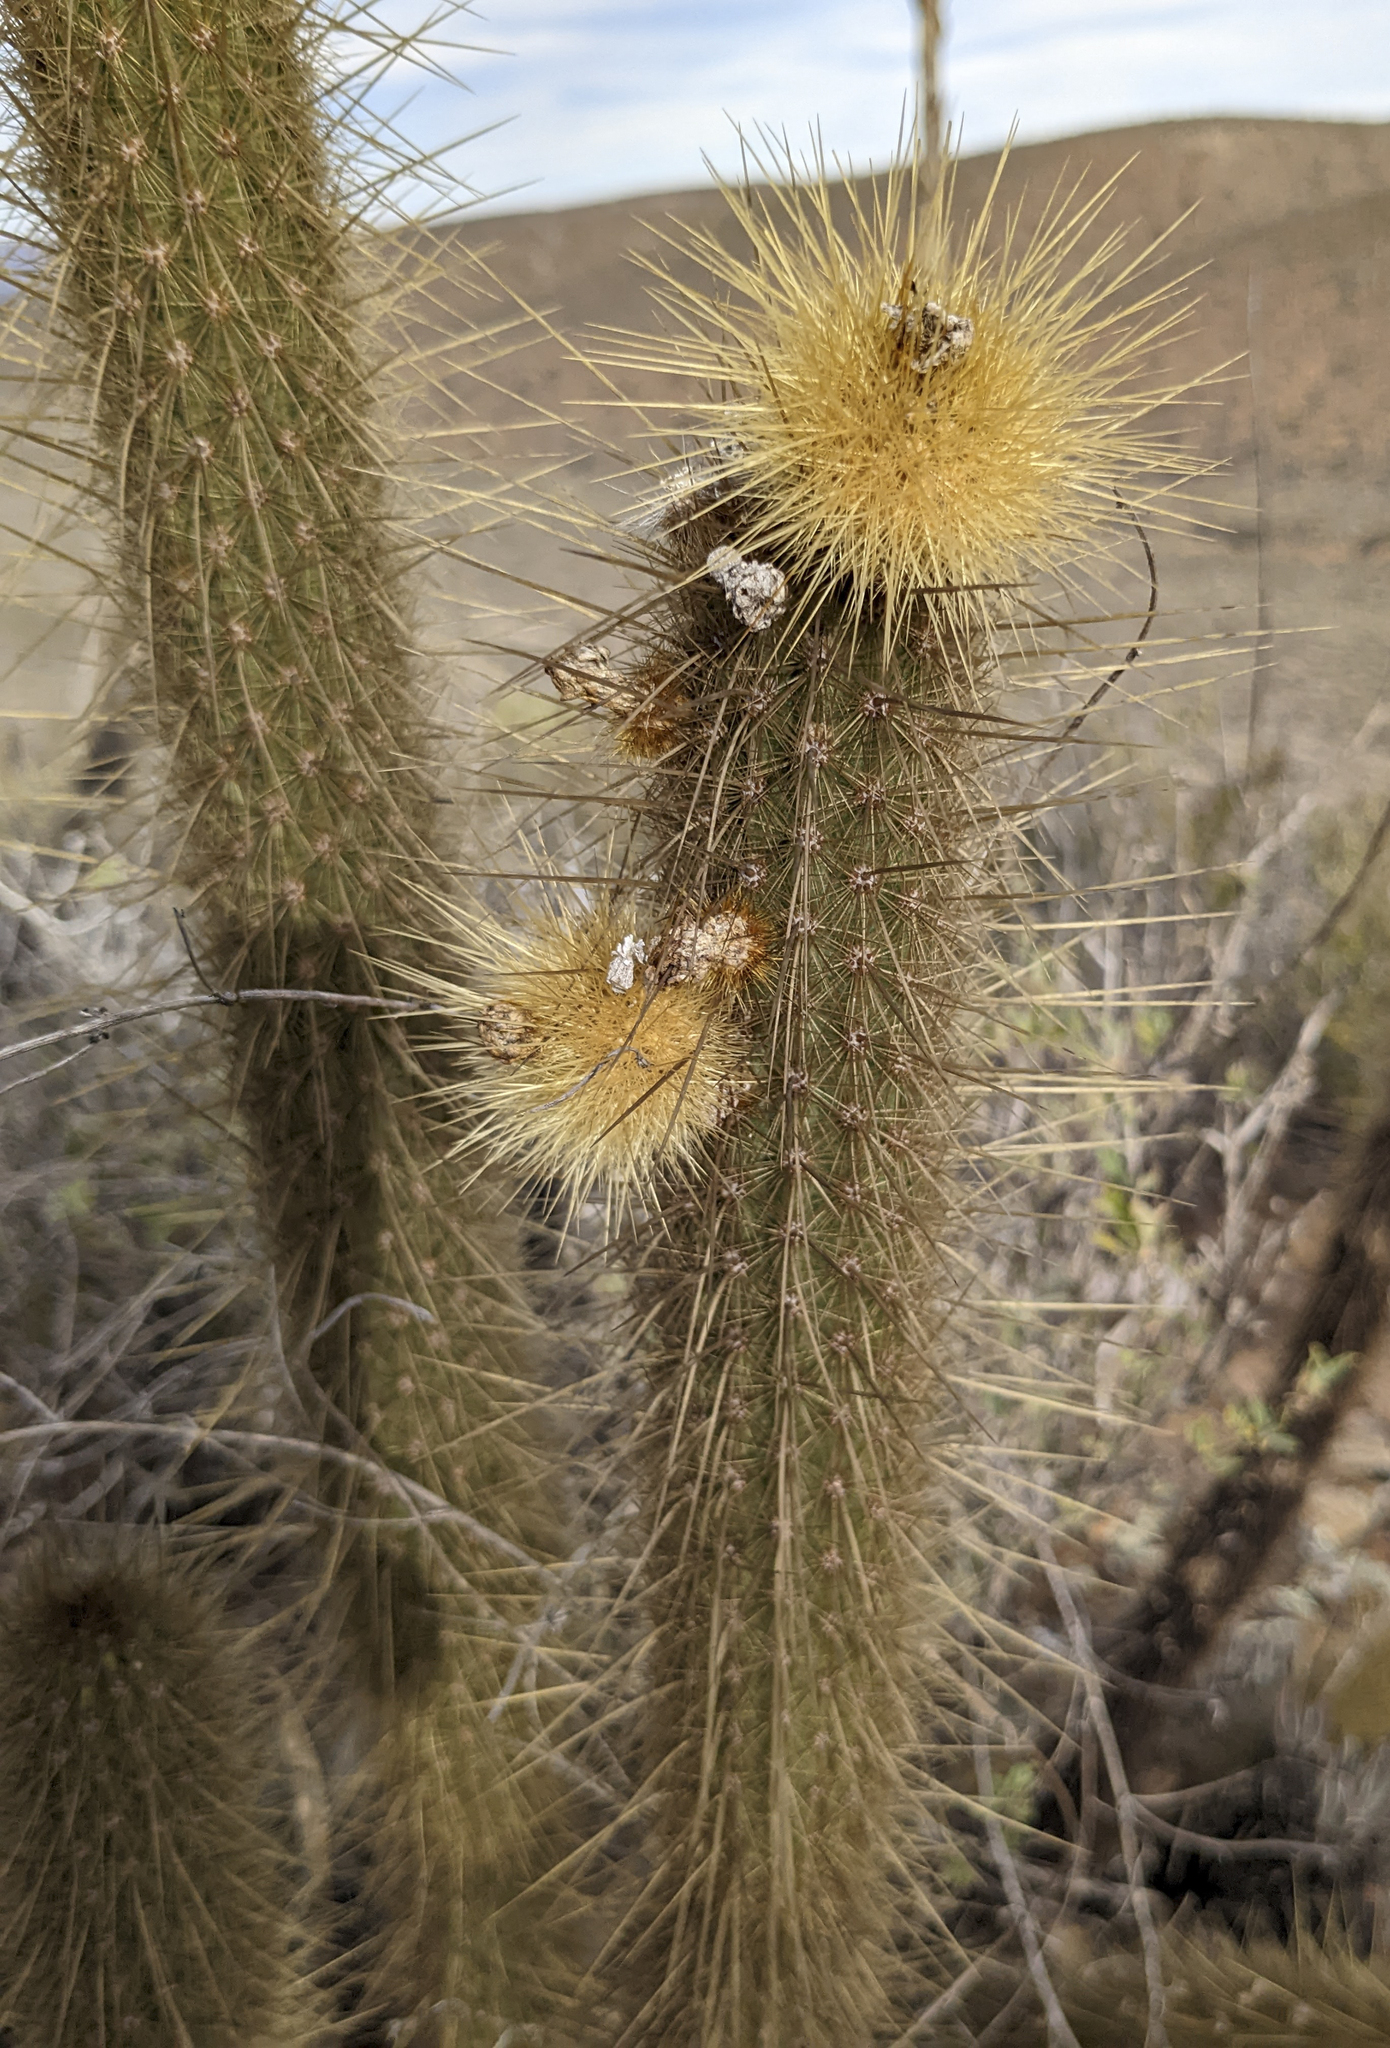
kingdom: Plantae
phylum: Tracheophyta
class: Magnoliopsida
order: Caryophyllales
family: Cactaceae
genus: Bergerocactus
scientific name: Bergerocactus emoryi
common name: Golden snakecactus
